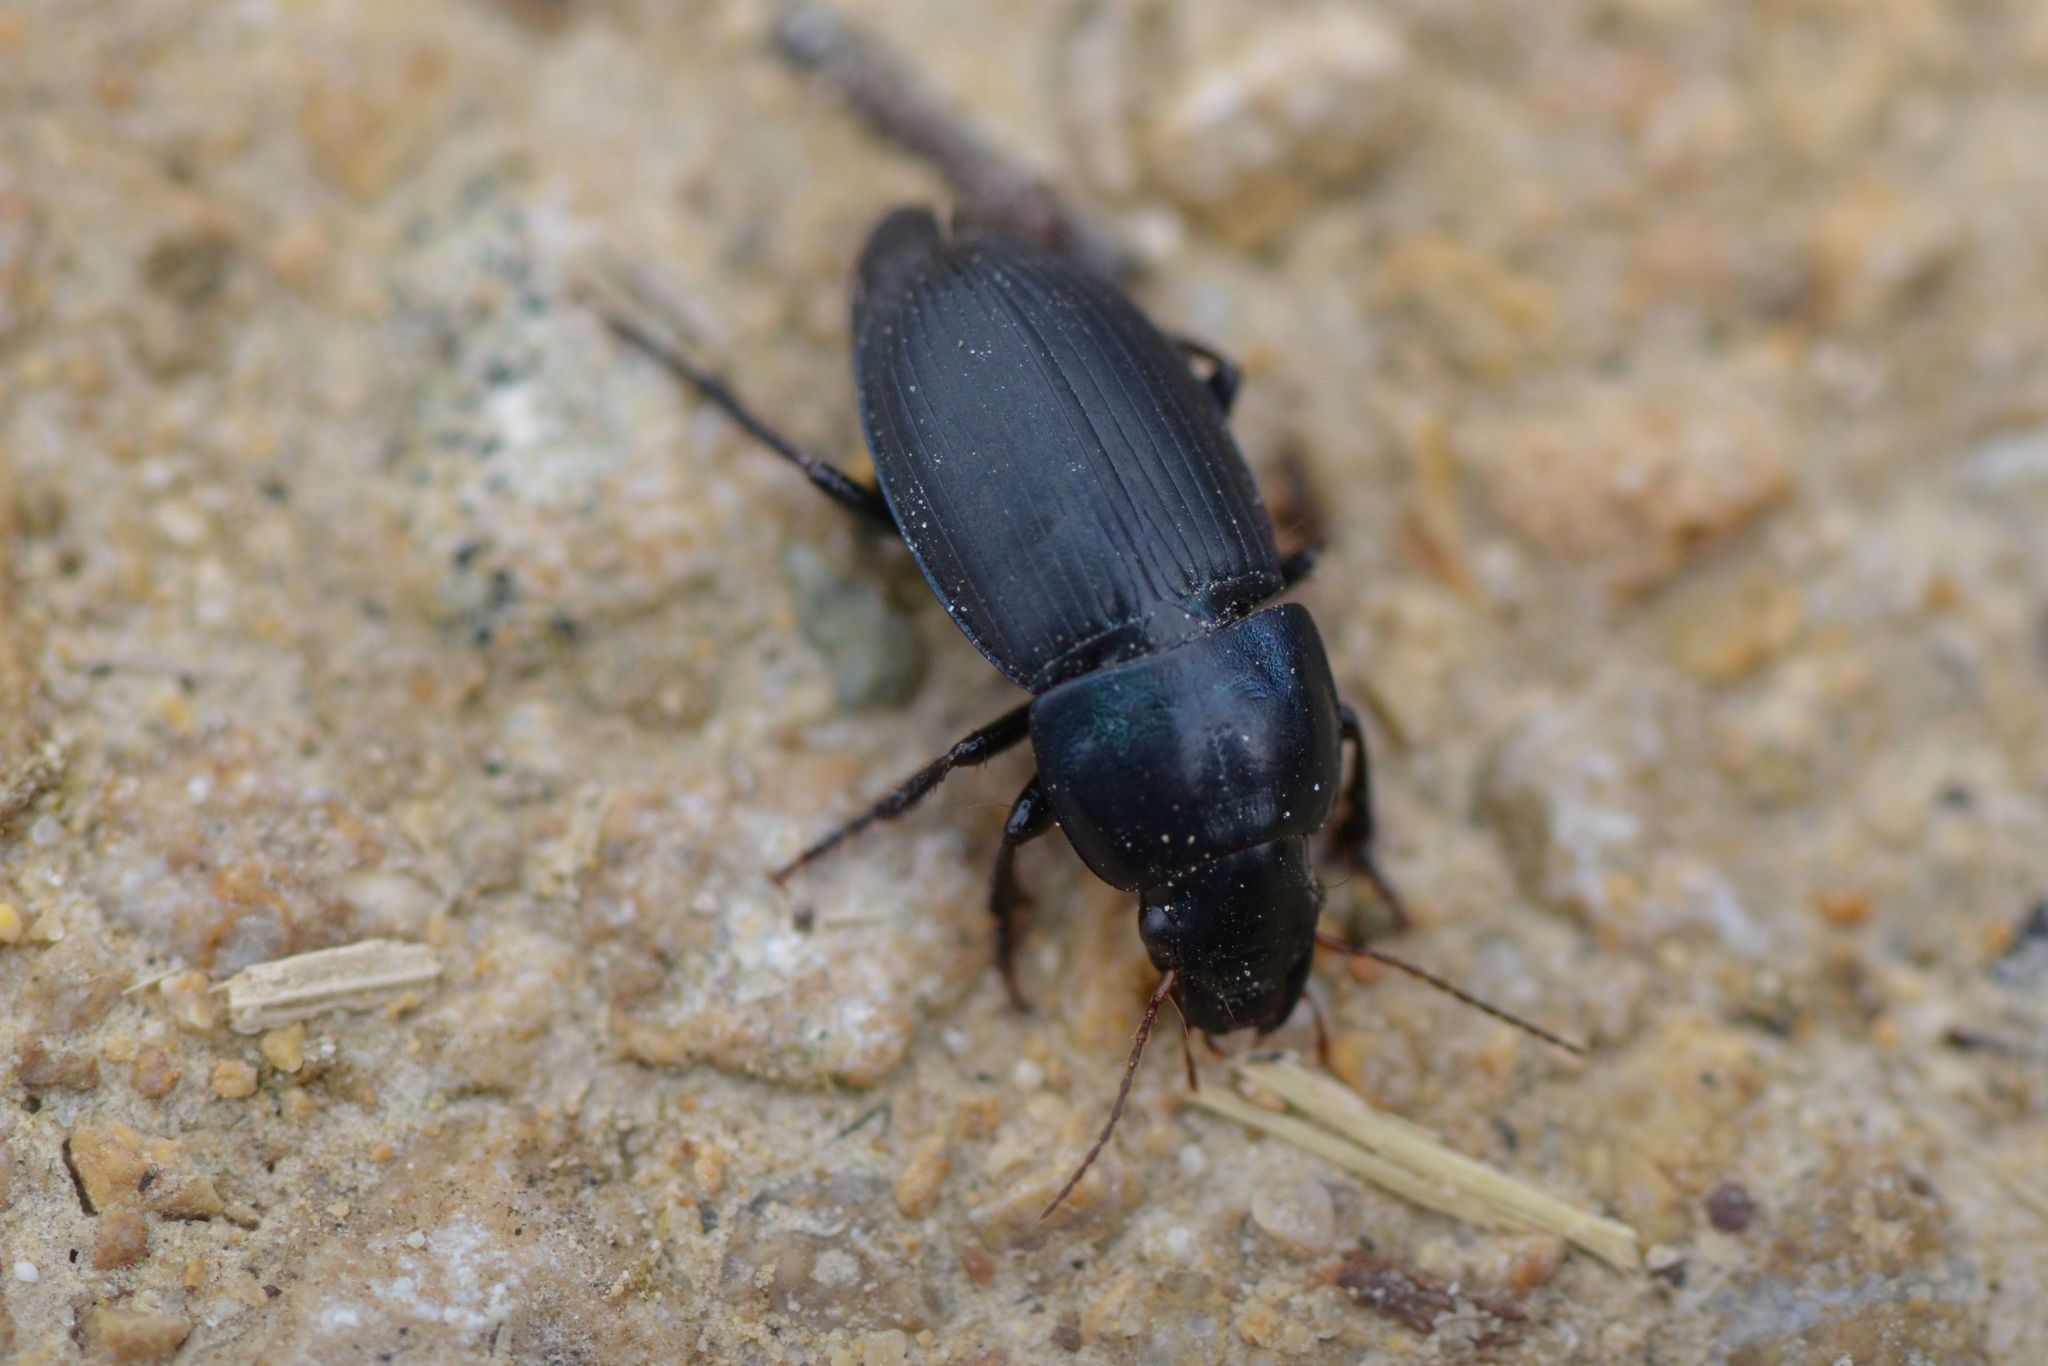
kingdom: Animalia
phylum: Arthropoda
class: Insecta
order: Coleoptera
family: Carabidae
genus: Harpalus
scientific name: Harpalus dimidiatus
